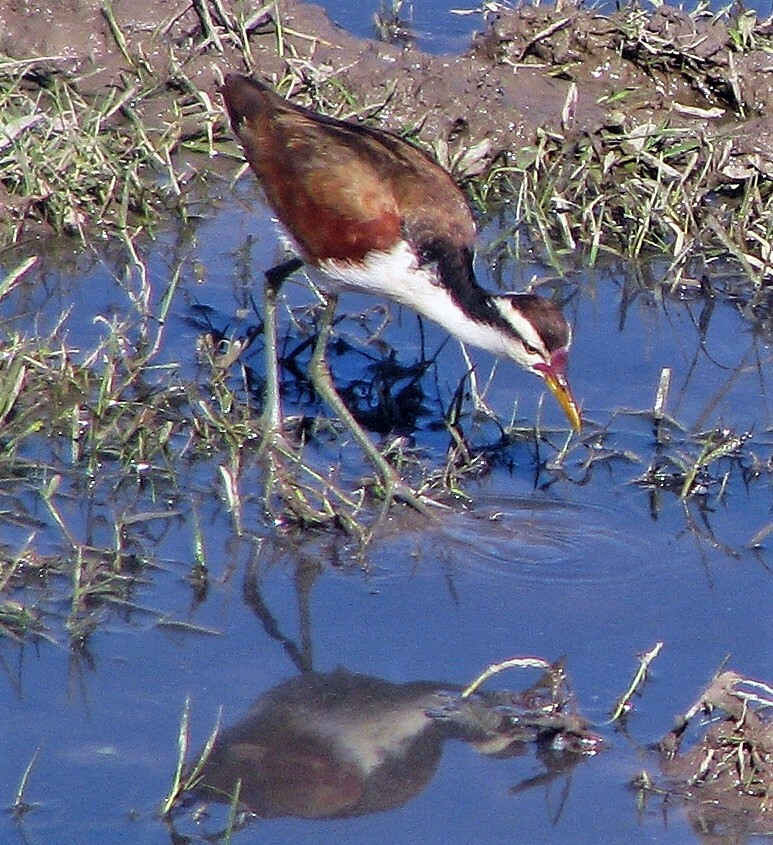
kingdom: Animalia
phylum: Chordata
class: Aves
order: Charadriiformes
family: Jacanidae
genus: Jacana
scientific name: Jacana jacana
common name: Wattled jacana
